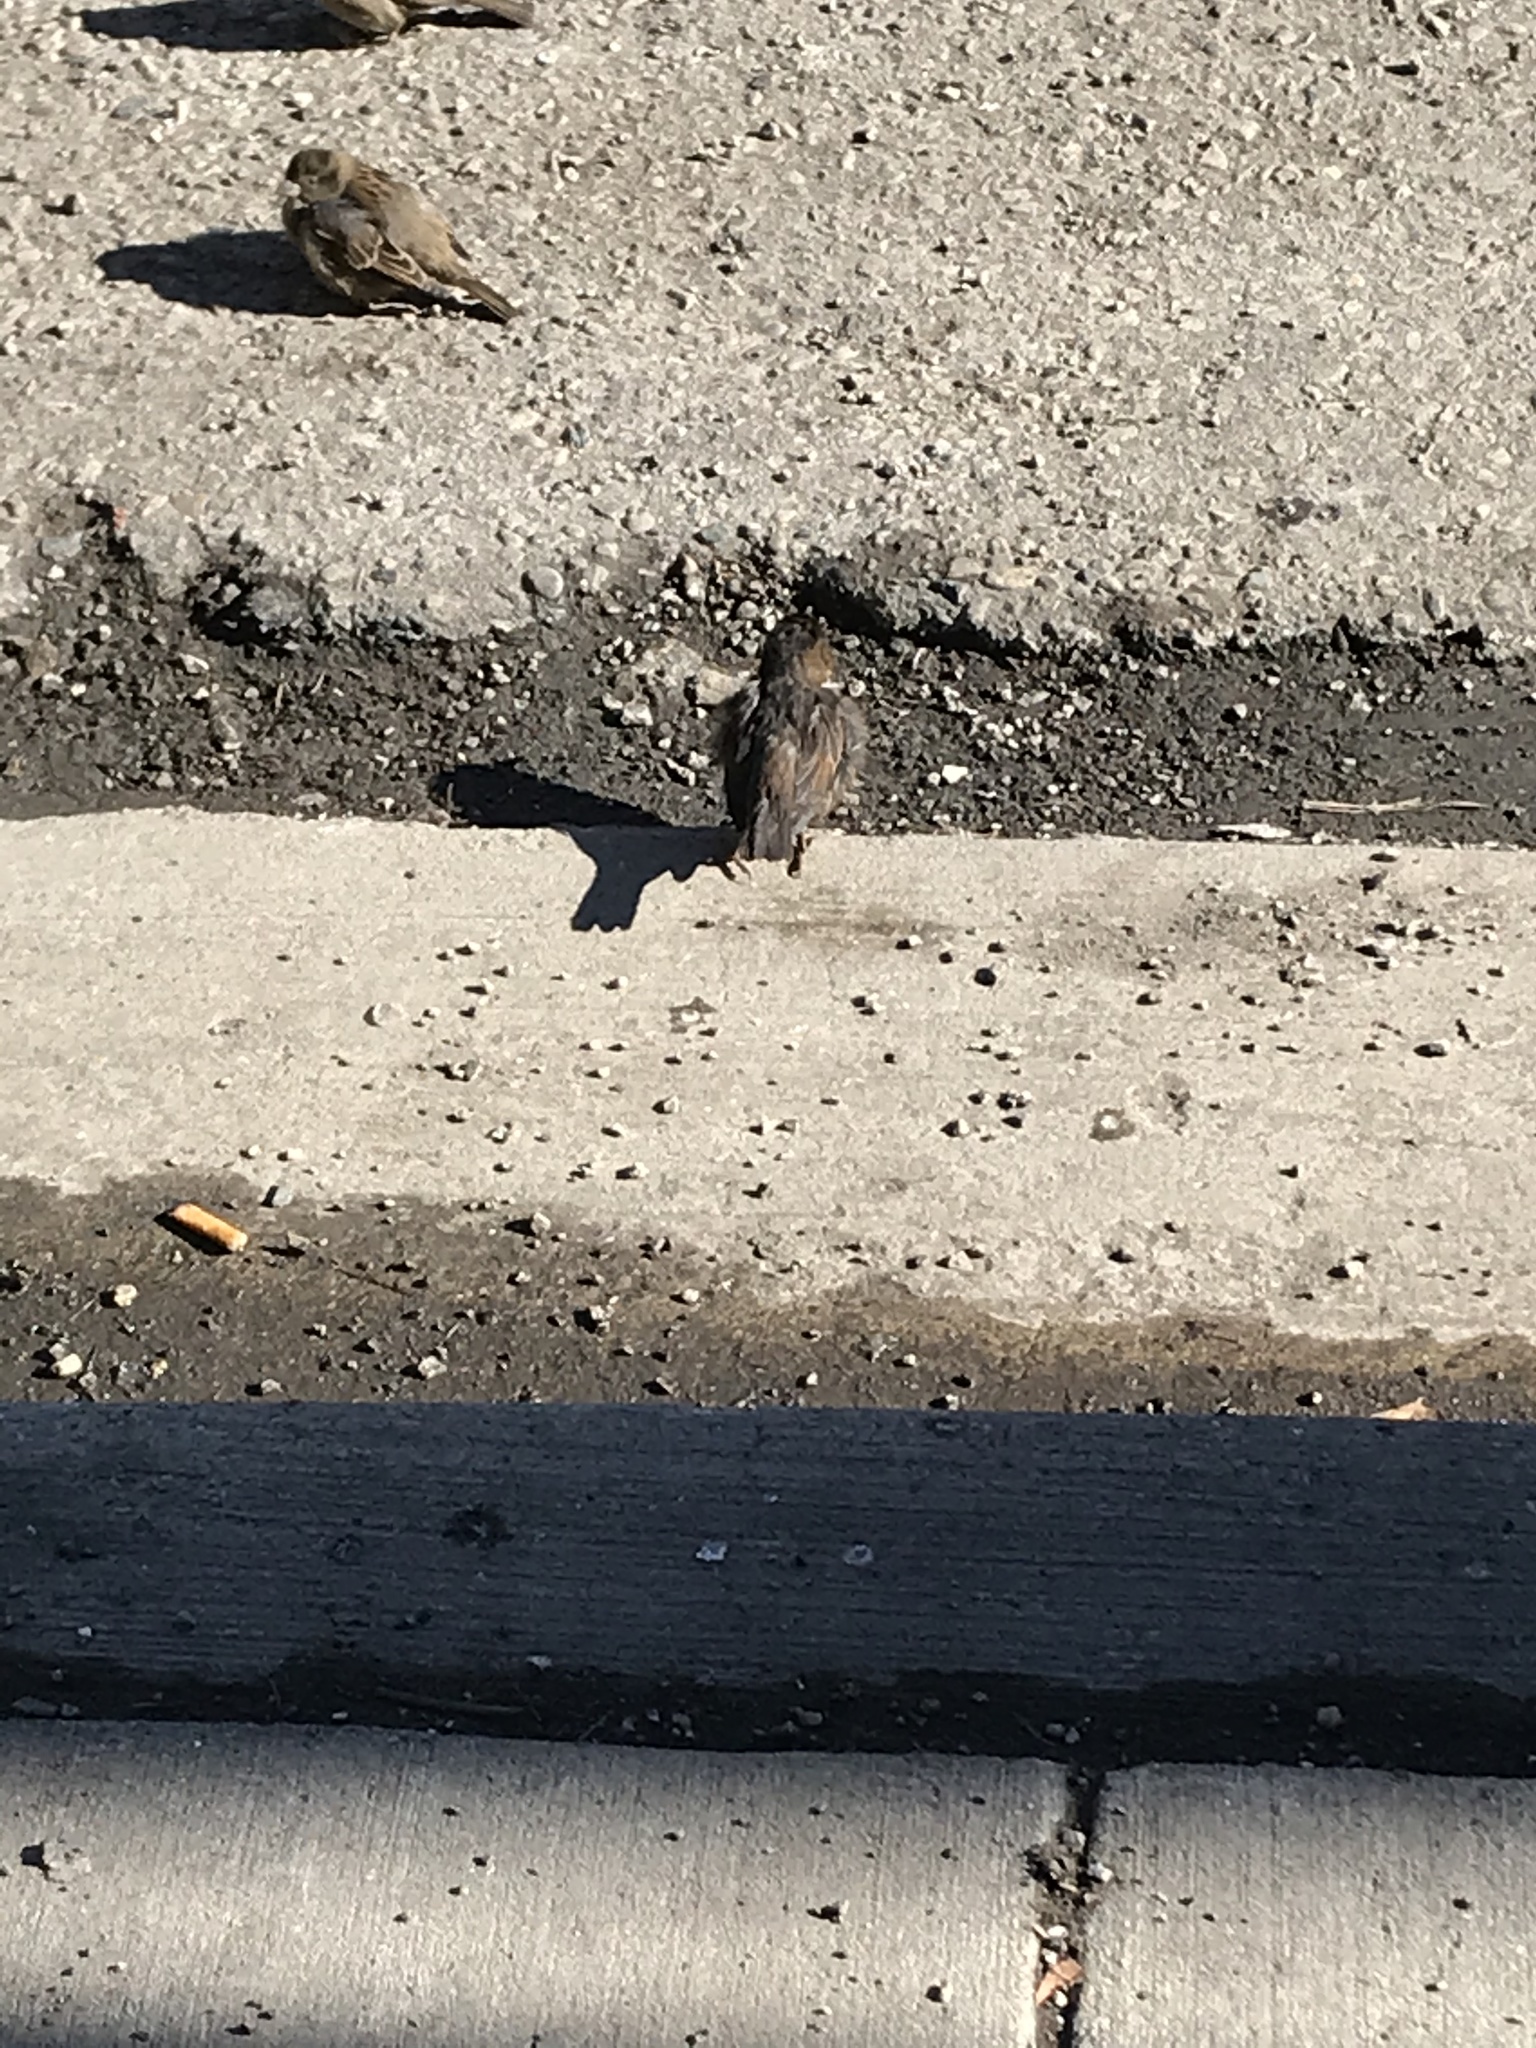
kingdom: Animalia
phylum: Chordata
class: Aves
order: Passeriformes
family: Passeridae
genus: Passer
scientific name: Passer domesticus
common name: House sparrow
